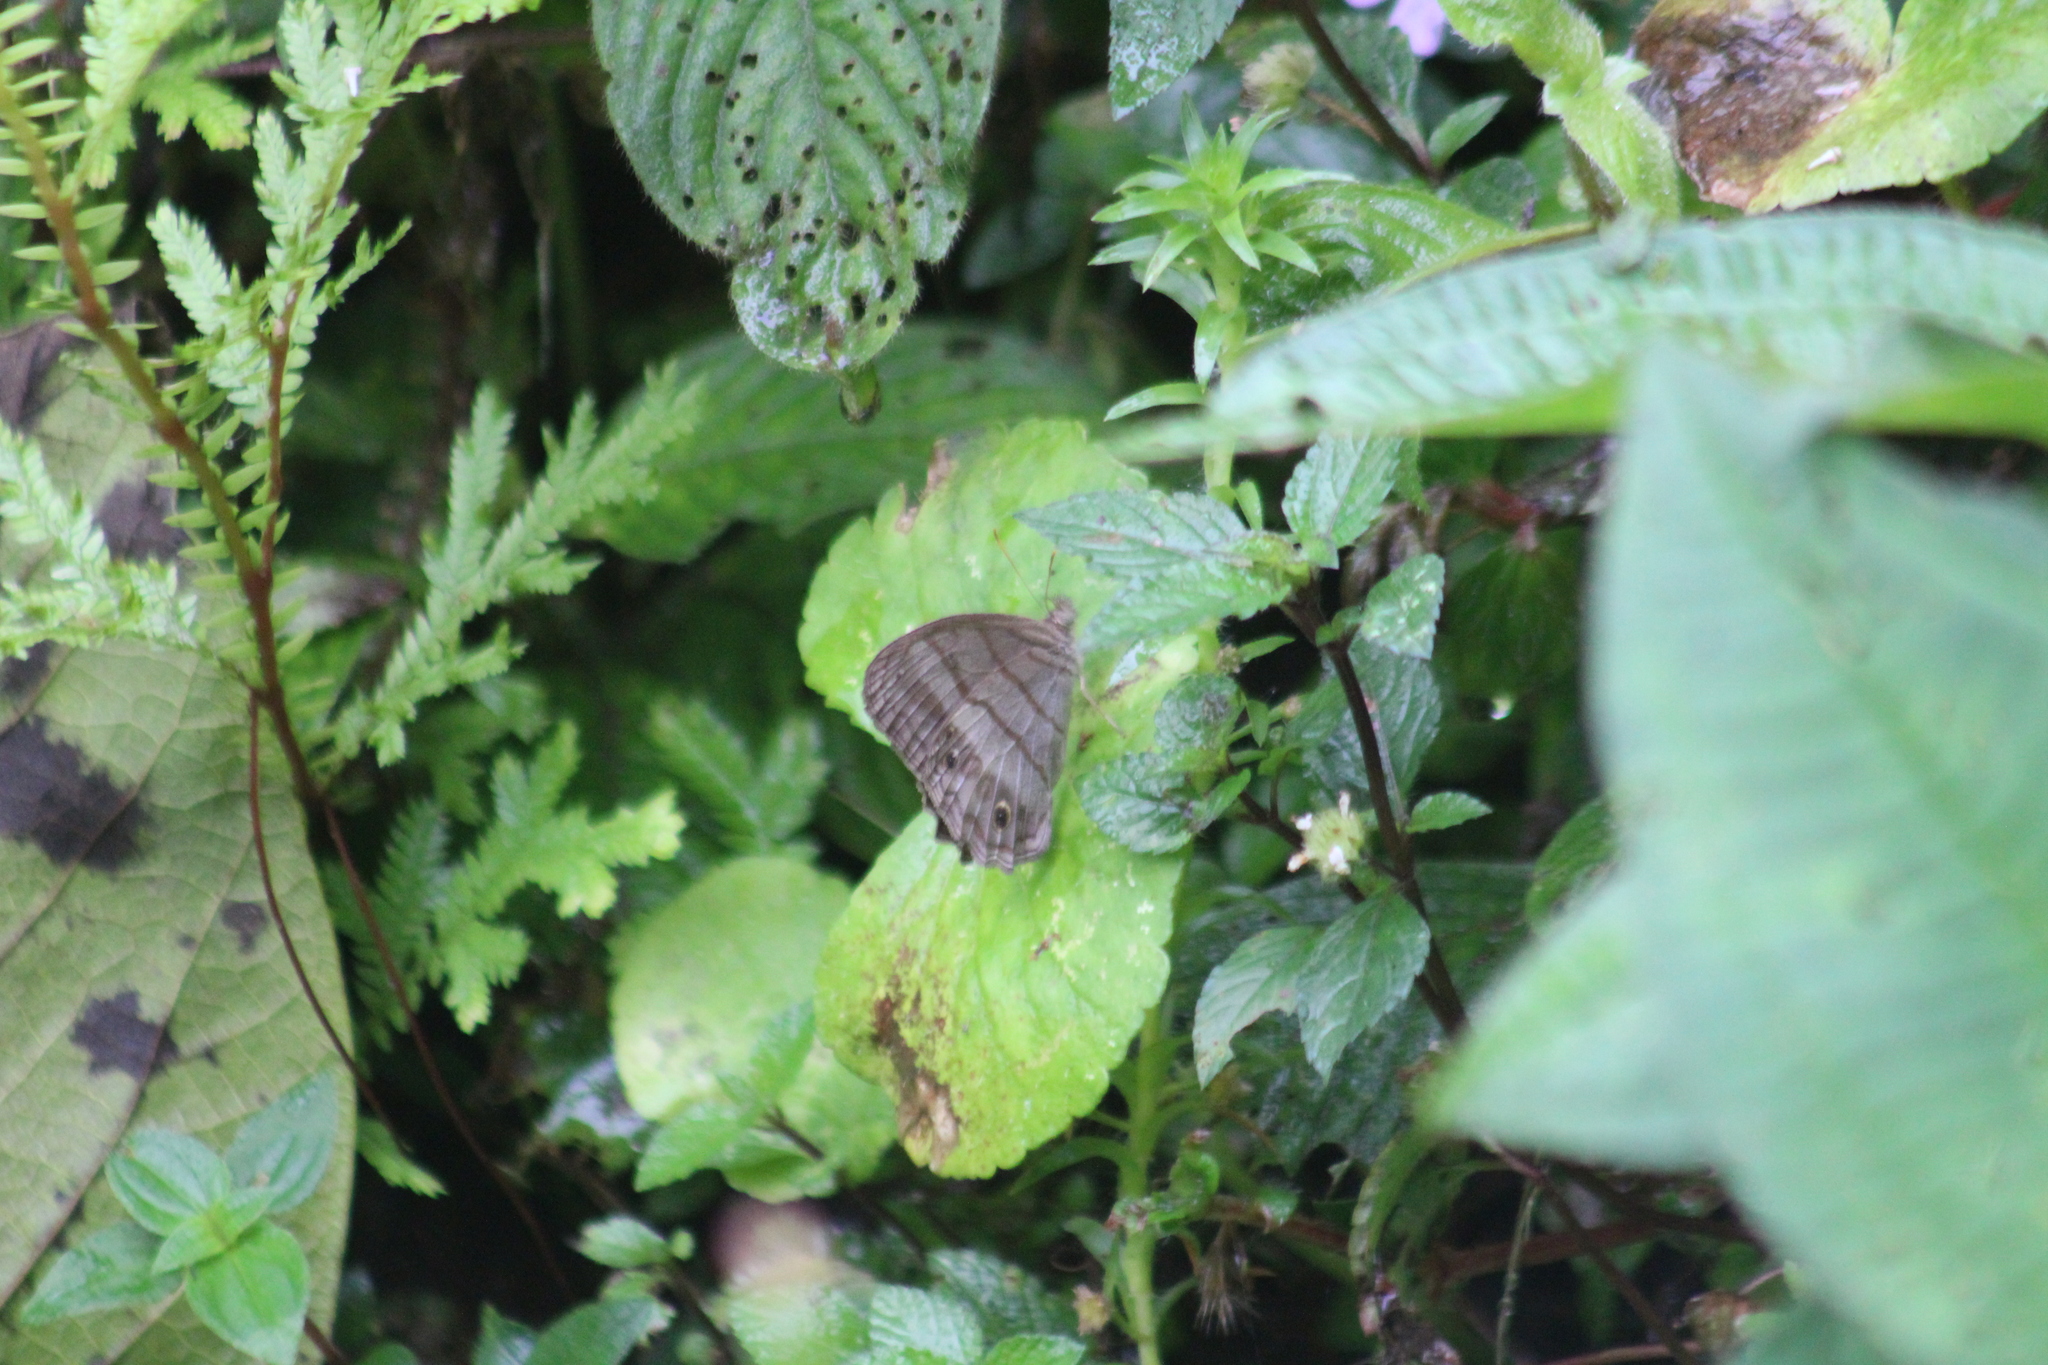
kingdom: Animalia
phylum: Arthropoda
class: Insecta
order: Lepidoptera
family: Nymphalidae
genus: Magneuptychia
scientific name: Magneuptychia libye
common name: Blue-gray satyr
